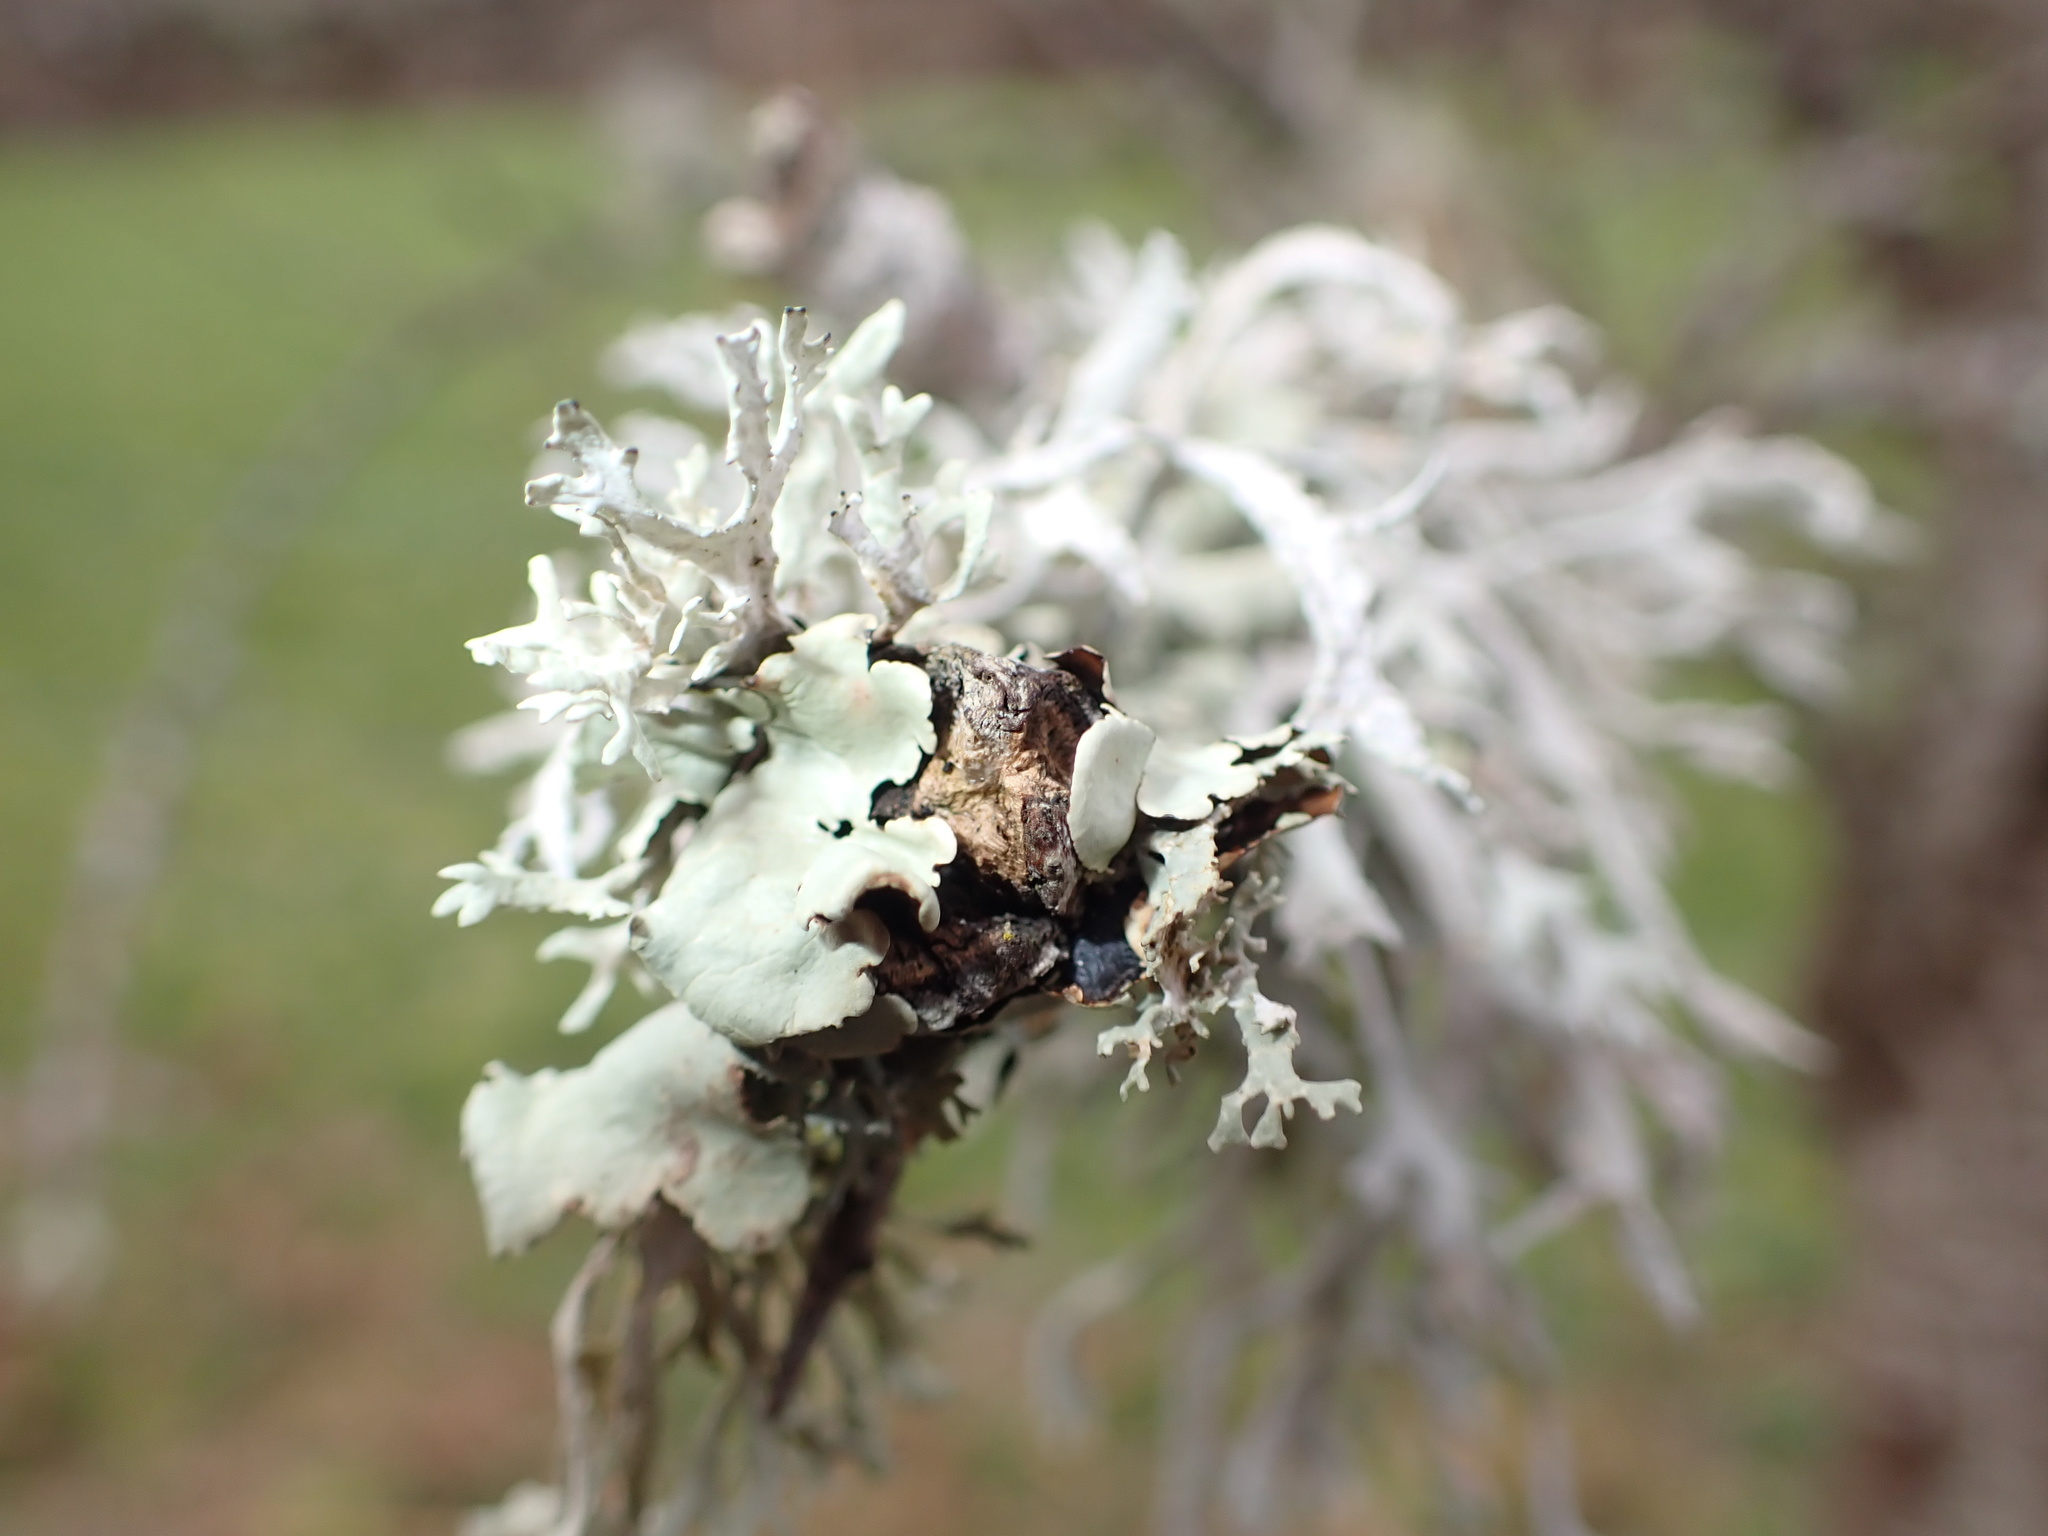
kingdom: Fungi
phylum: Ascomycota
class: Lecanoromycetes
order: Lecanorales
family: Parmeliaceae
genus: Evernia
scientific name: Evernia prunastri
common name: Oak moss
